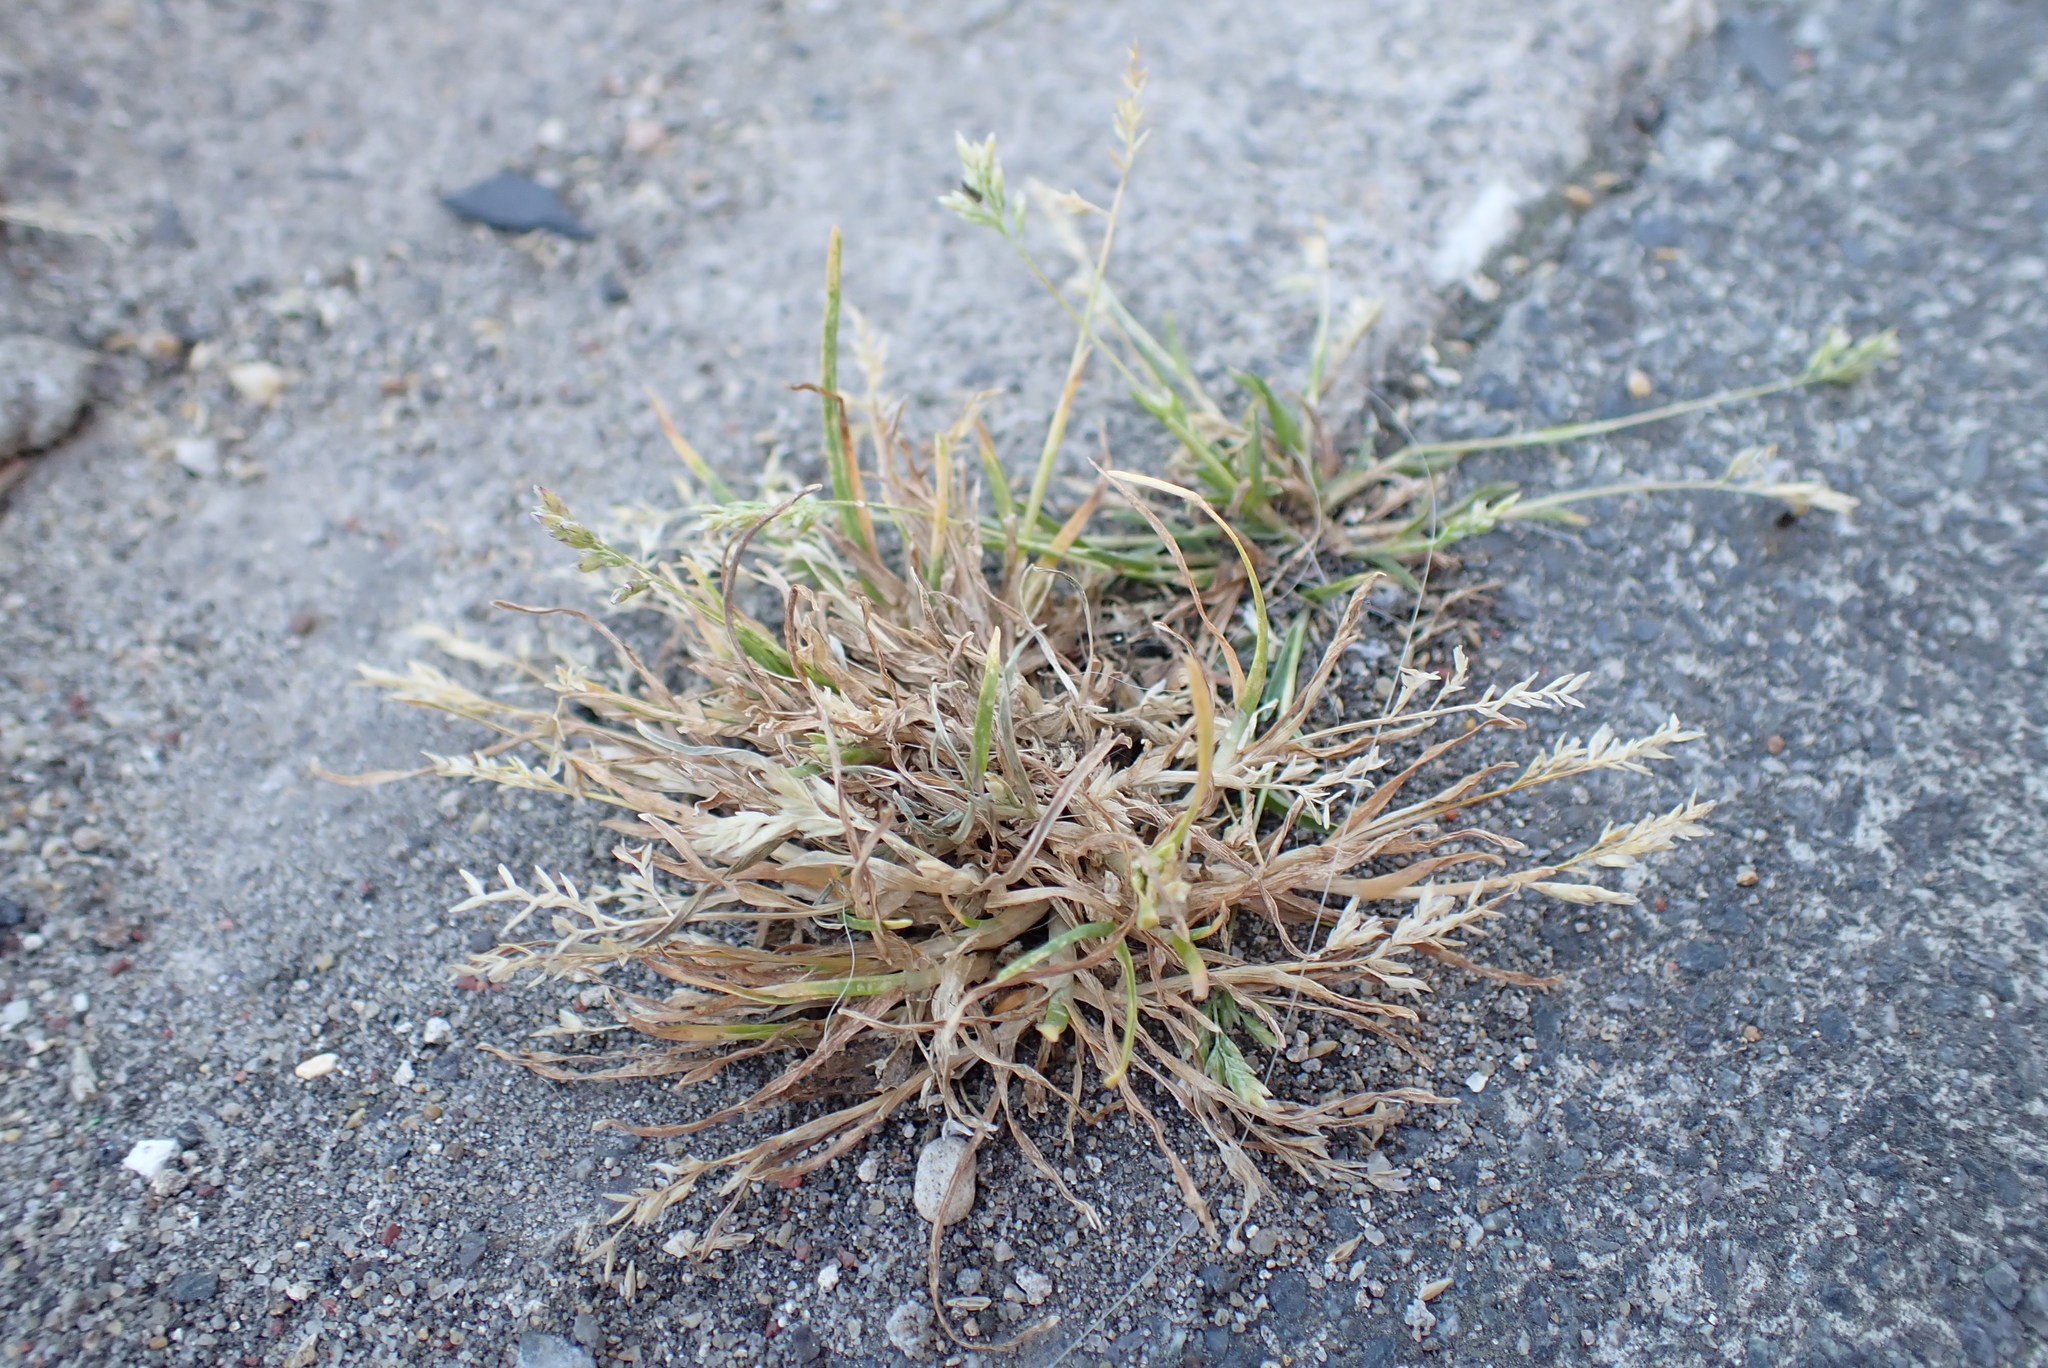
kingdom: Plantae
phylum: Tracheophyta
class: Liliopsida
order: Poales
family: Poaceae
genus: Poa
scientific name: Poa annua
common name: Annual bluegrass
